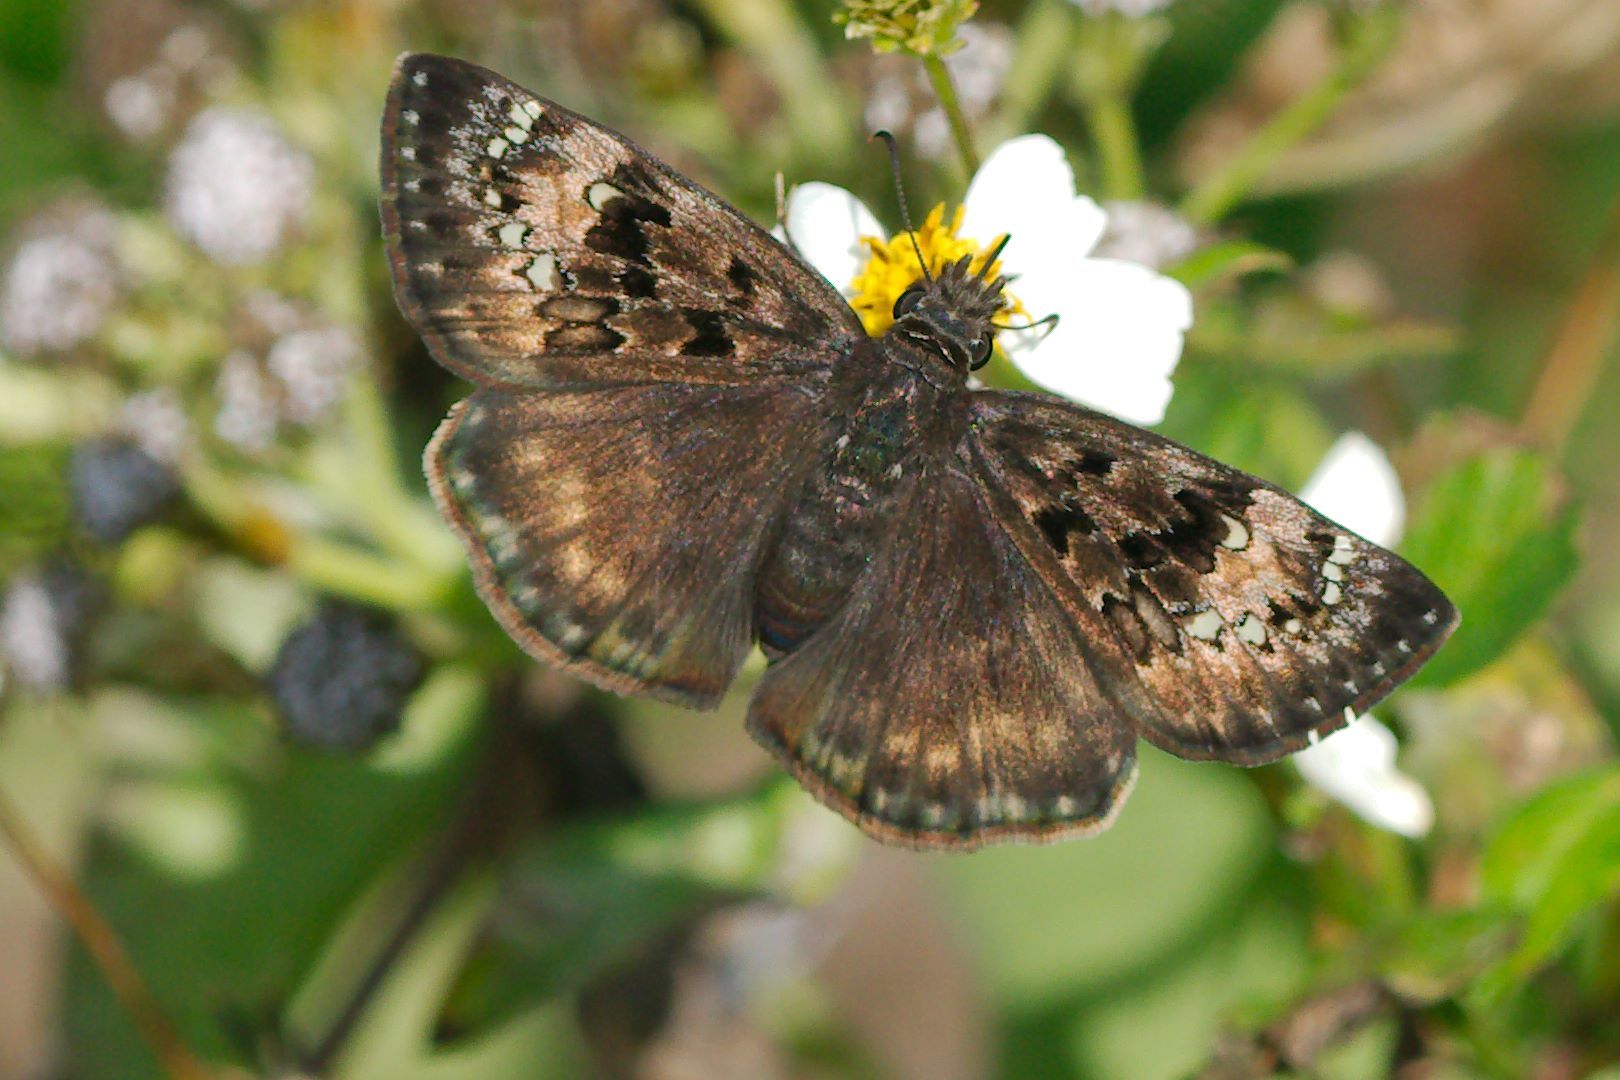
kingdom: Animalia
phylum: Arthropoda
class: Insecta
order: Lepidoptera
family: Hesperiidae
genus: Erynnis
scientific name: Erynnis horatius
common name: Horace's duskywing
